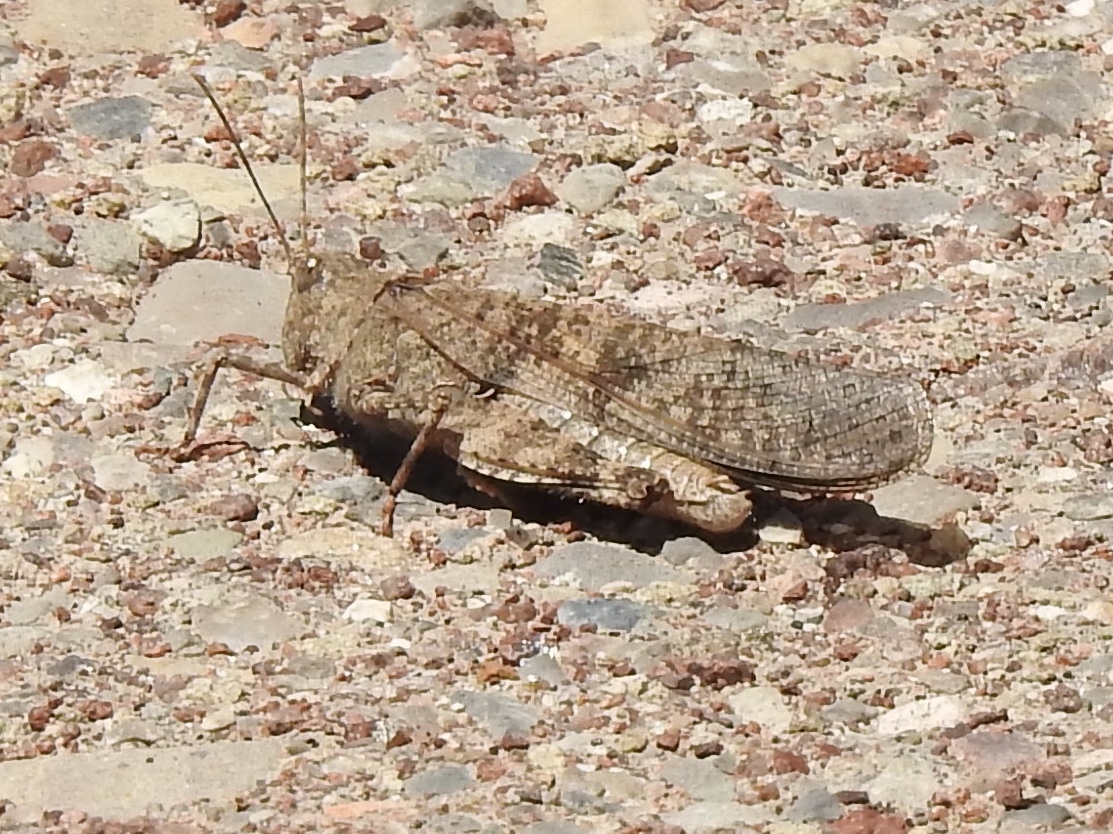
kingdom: Animalia
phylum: Arthropoda
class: Insecta
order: Orthoptera
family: Acrididae
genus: Circotettix
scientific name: Circotettix rabula
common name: Wrangler grasshopper
